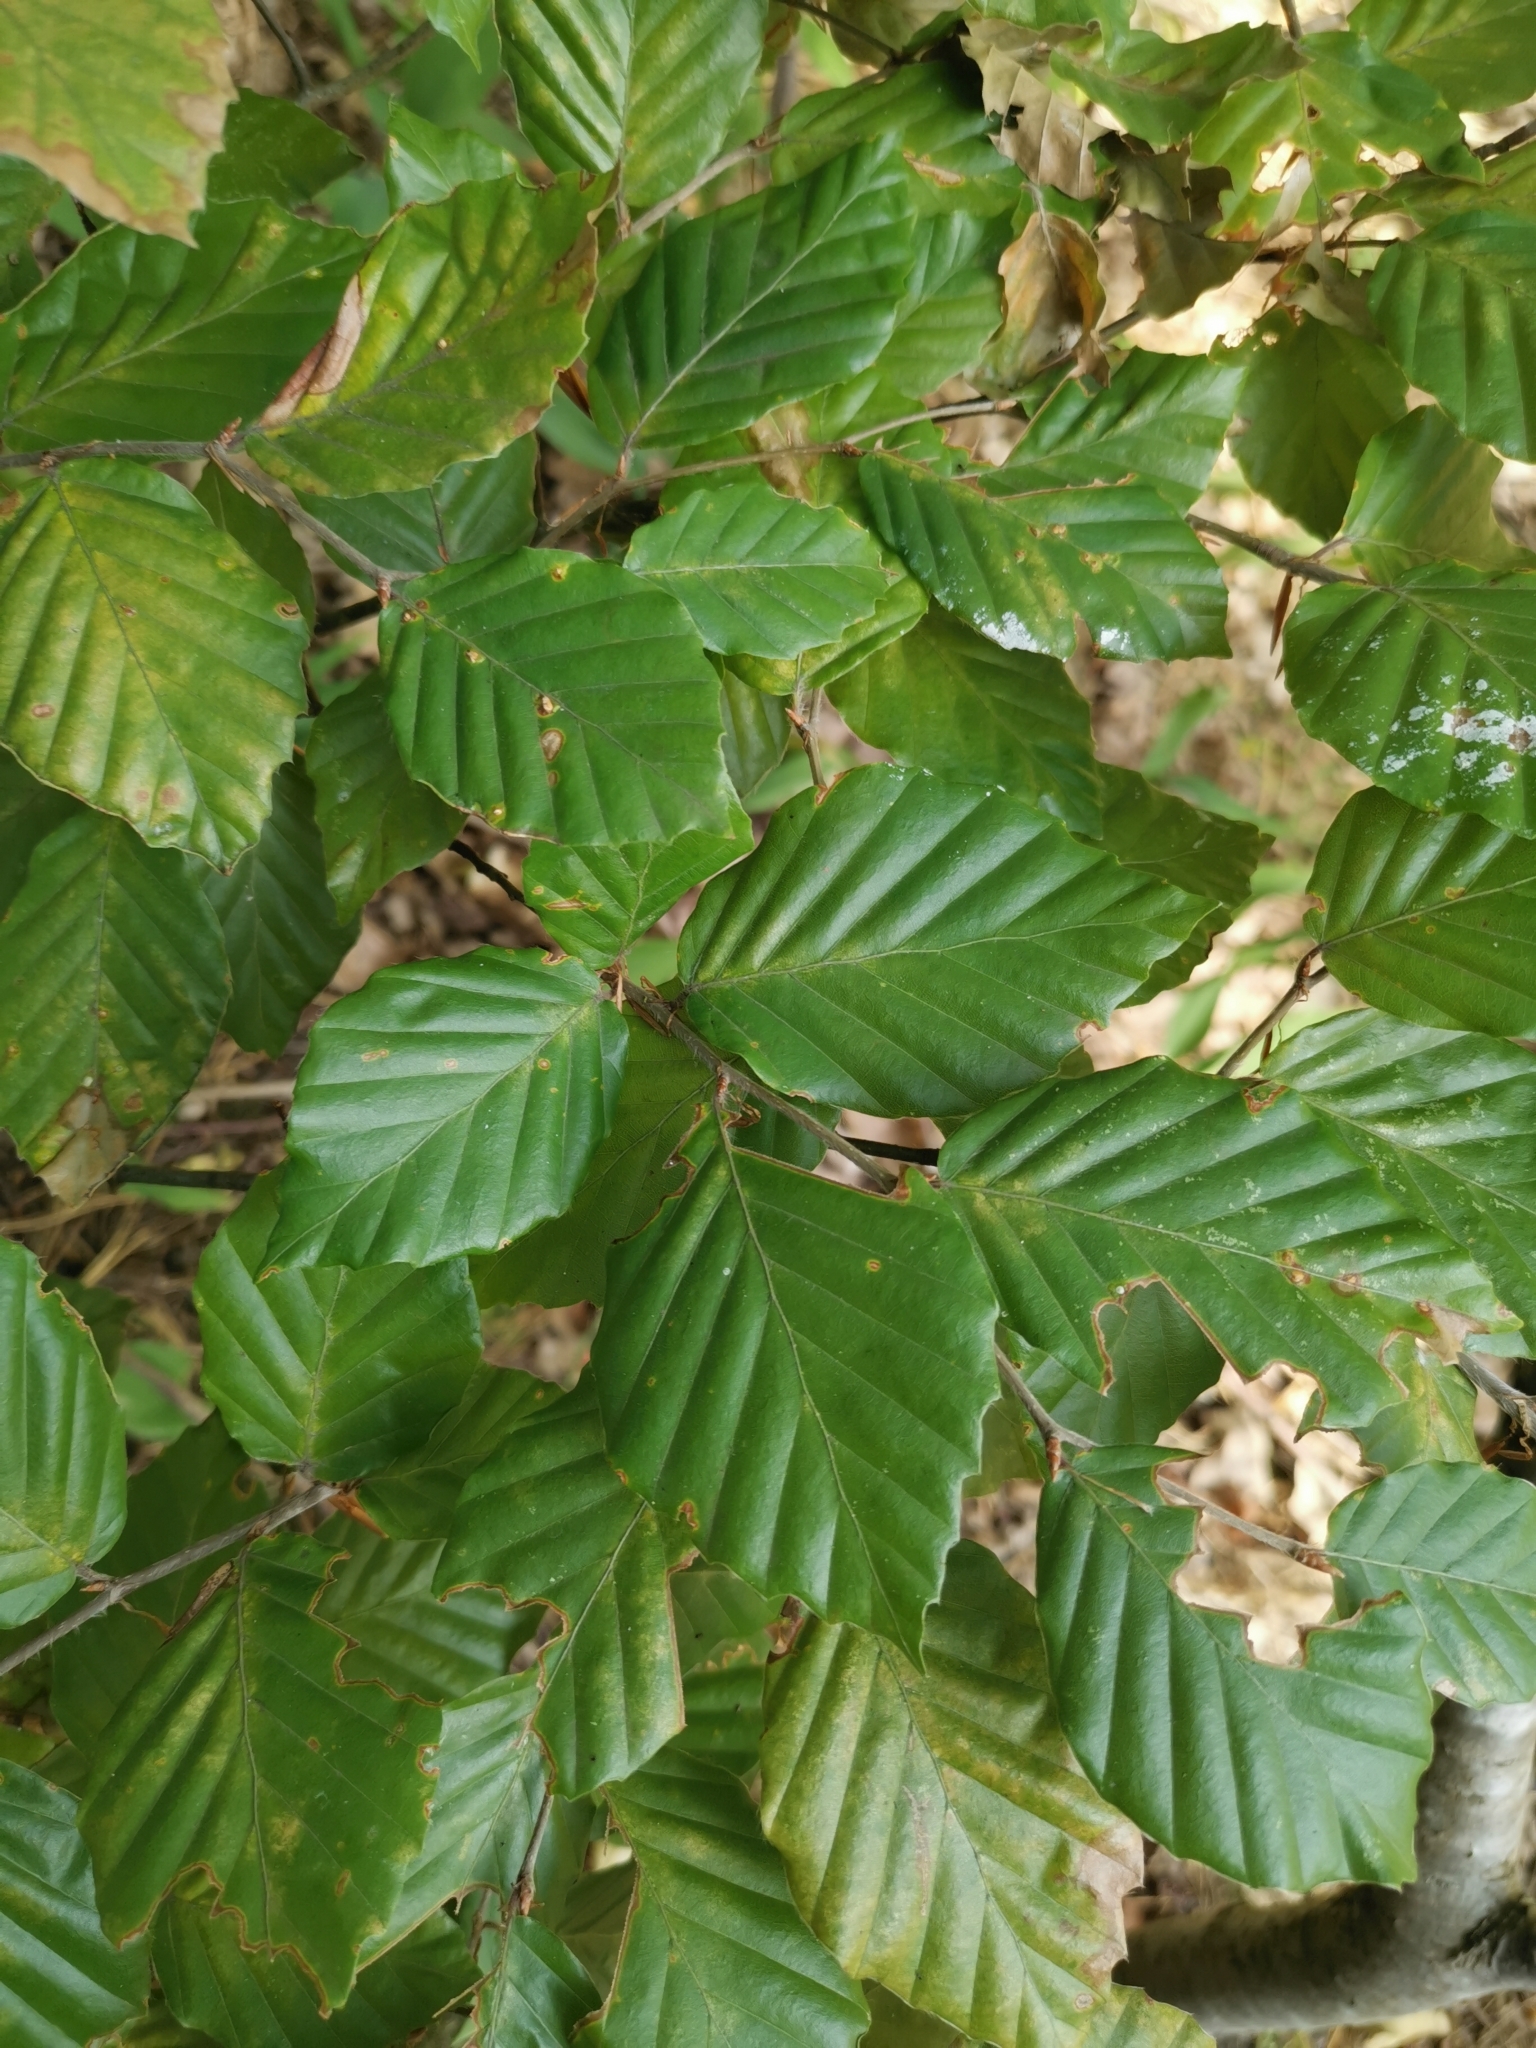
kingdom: Plantae
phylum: Tracheophyta
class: Magnoliopsida
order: Fagales
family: Fagaceae
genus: Fagus
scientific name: Fagus sylvatica
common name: Beech
